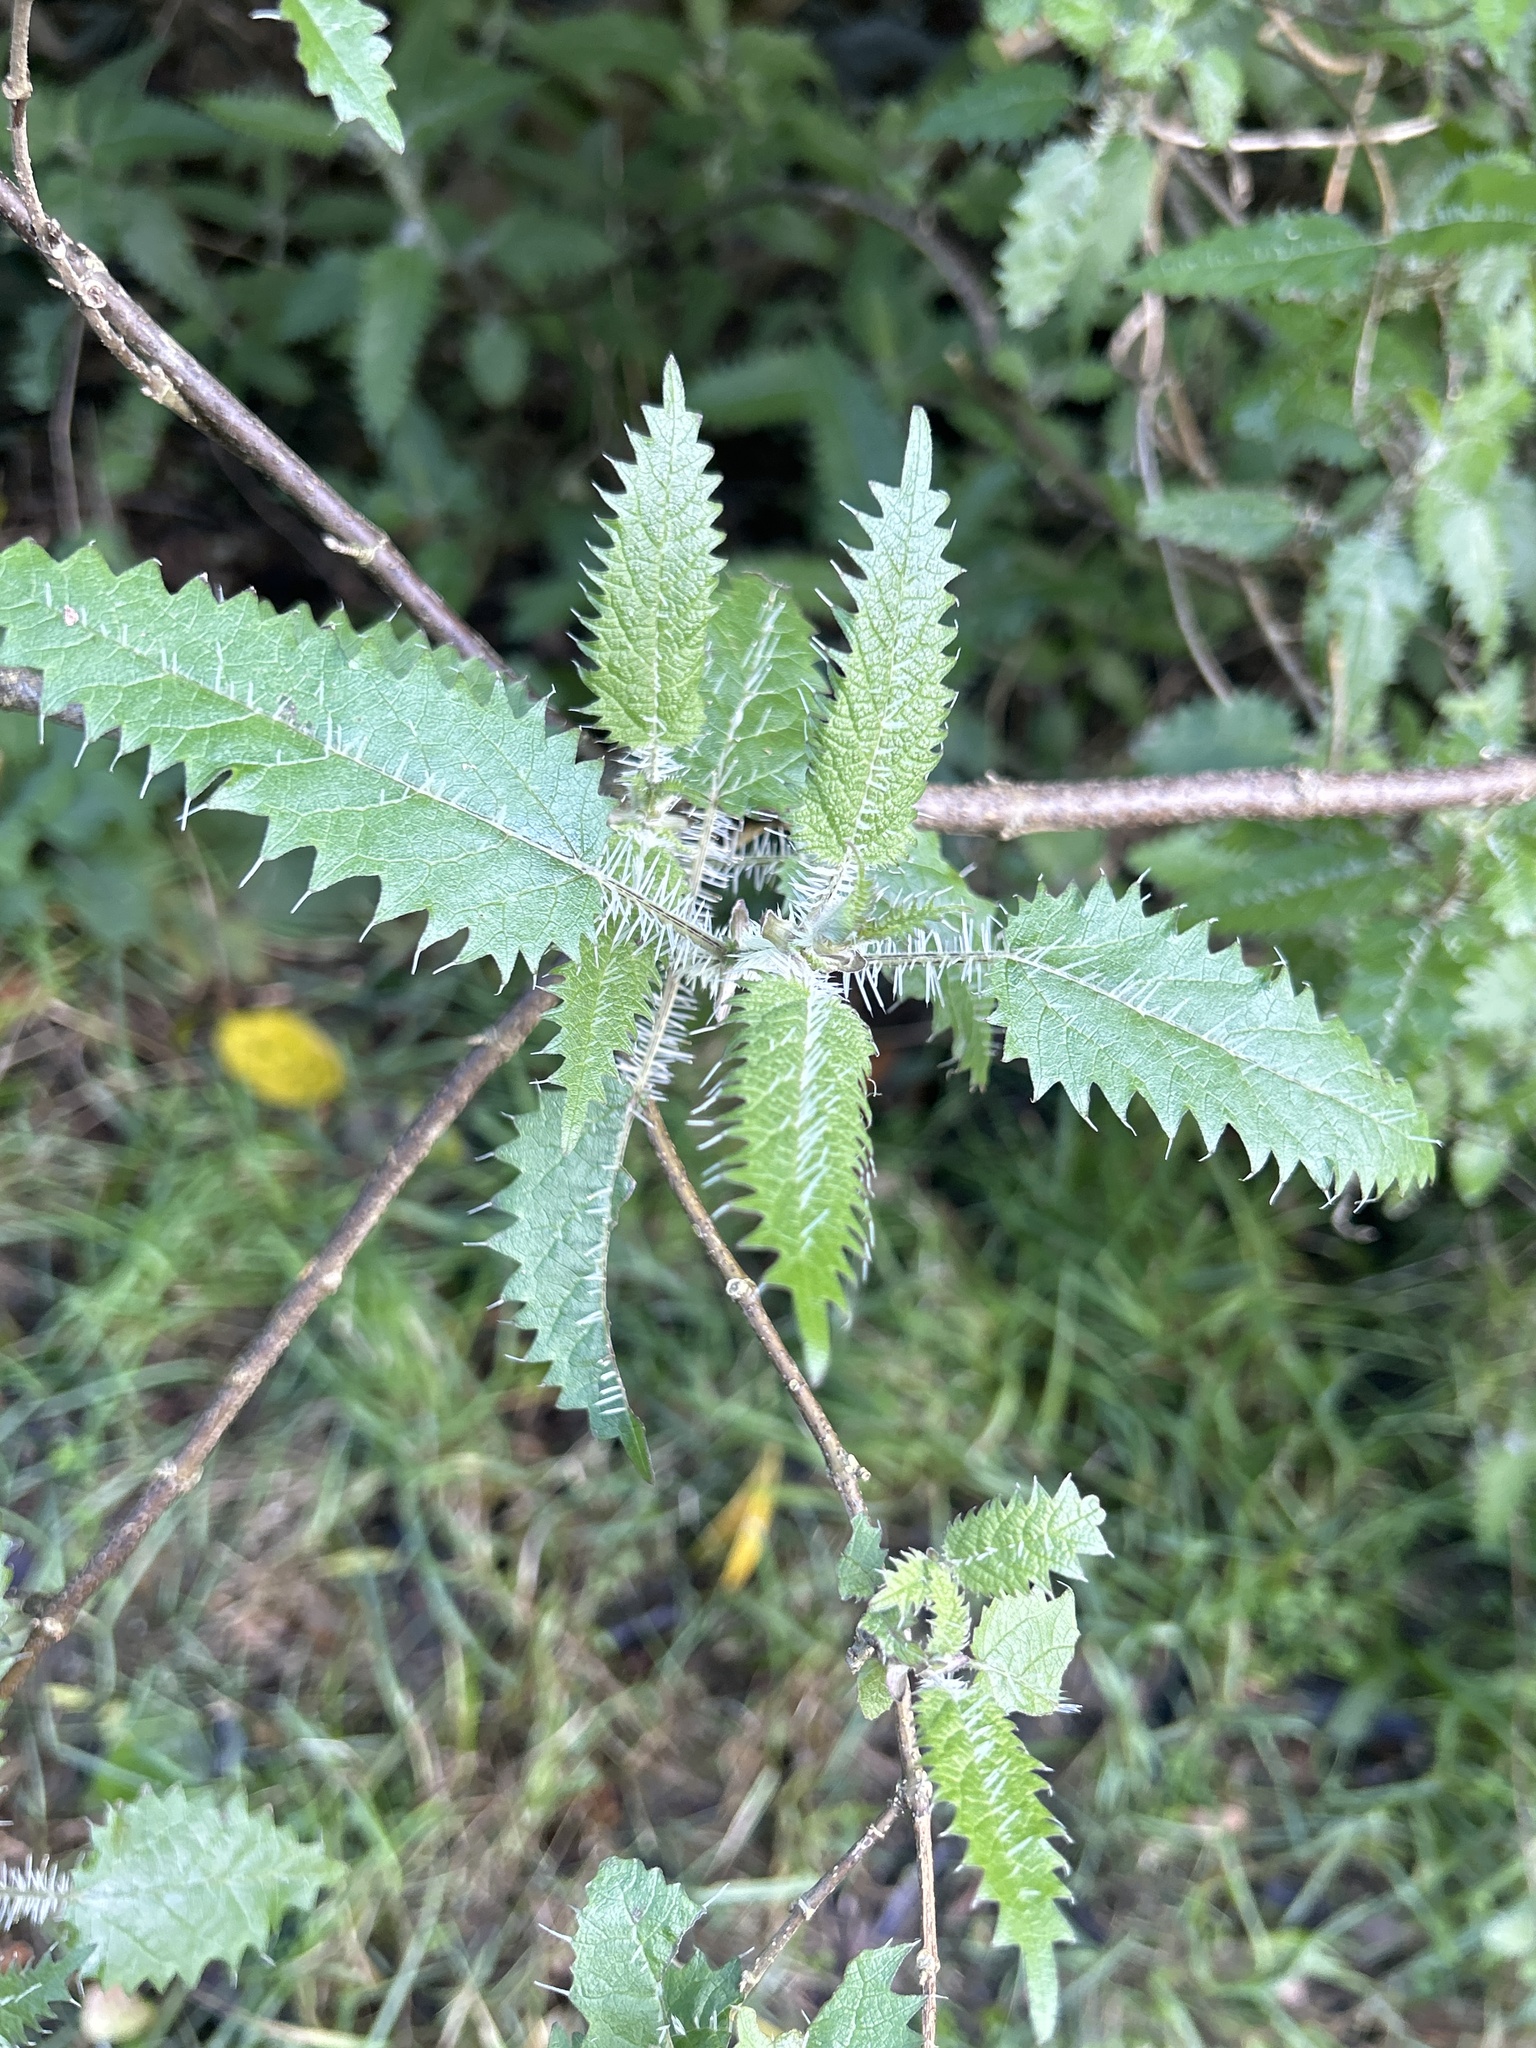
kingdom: Plantae
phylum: Tracheophyta
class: Magnoliopsida
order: Rosales
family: Urticaceae
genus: Urtica
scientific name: Urtica ferox
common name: Tree nettle
